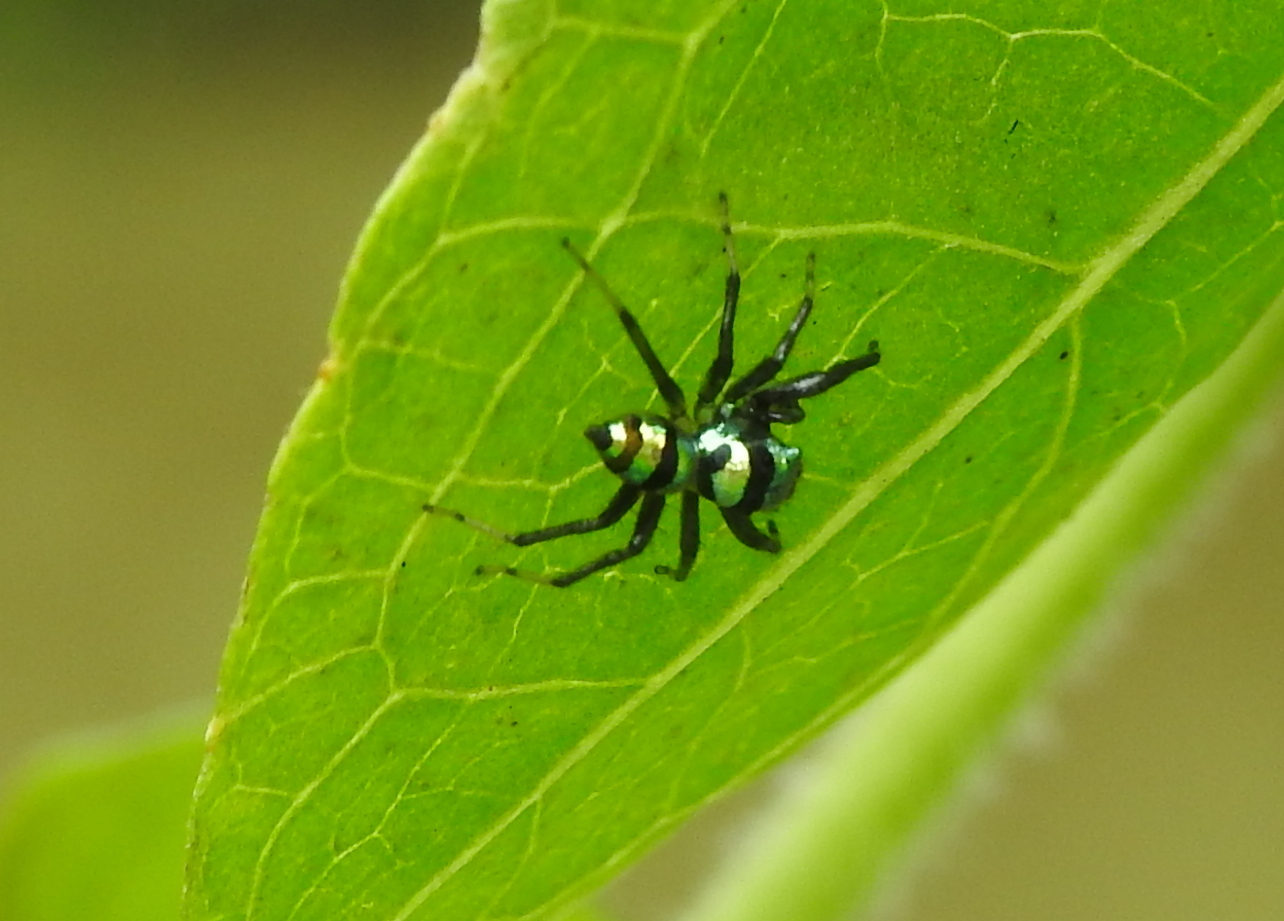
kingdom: Animalia
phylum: Arthropoda
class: Arachnida
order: Araneae
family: Salticidae
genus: Phintella
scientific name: Phintella vittata
